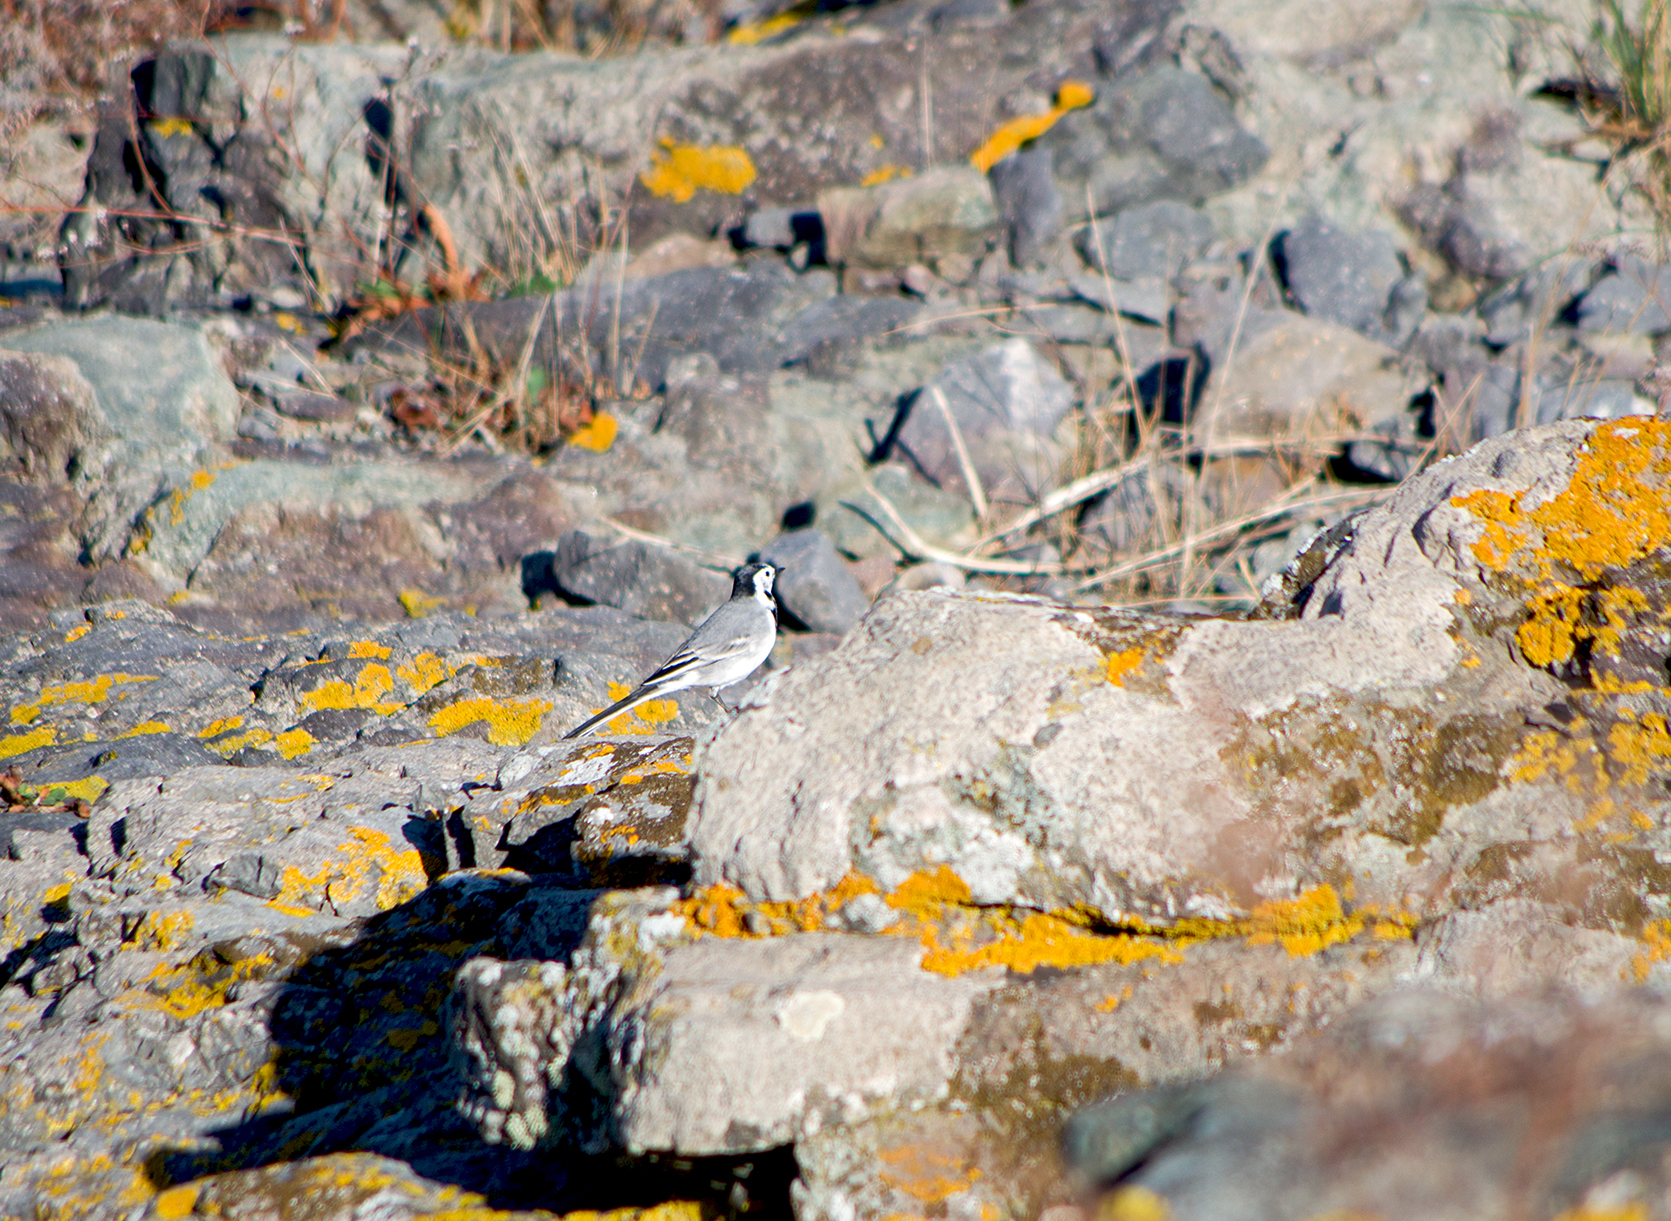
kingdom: Animalia
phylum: Chordata
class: Aves
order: Passeriformes
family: Motacillidae
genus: Motacilla
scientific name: Motacilla alba
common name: White wagtail
